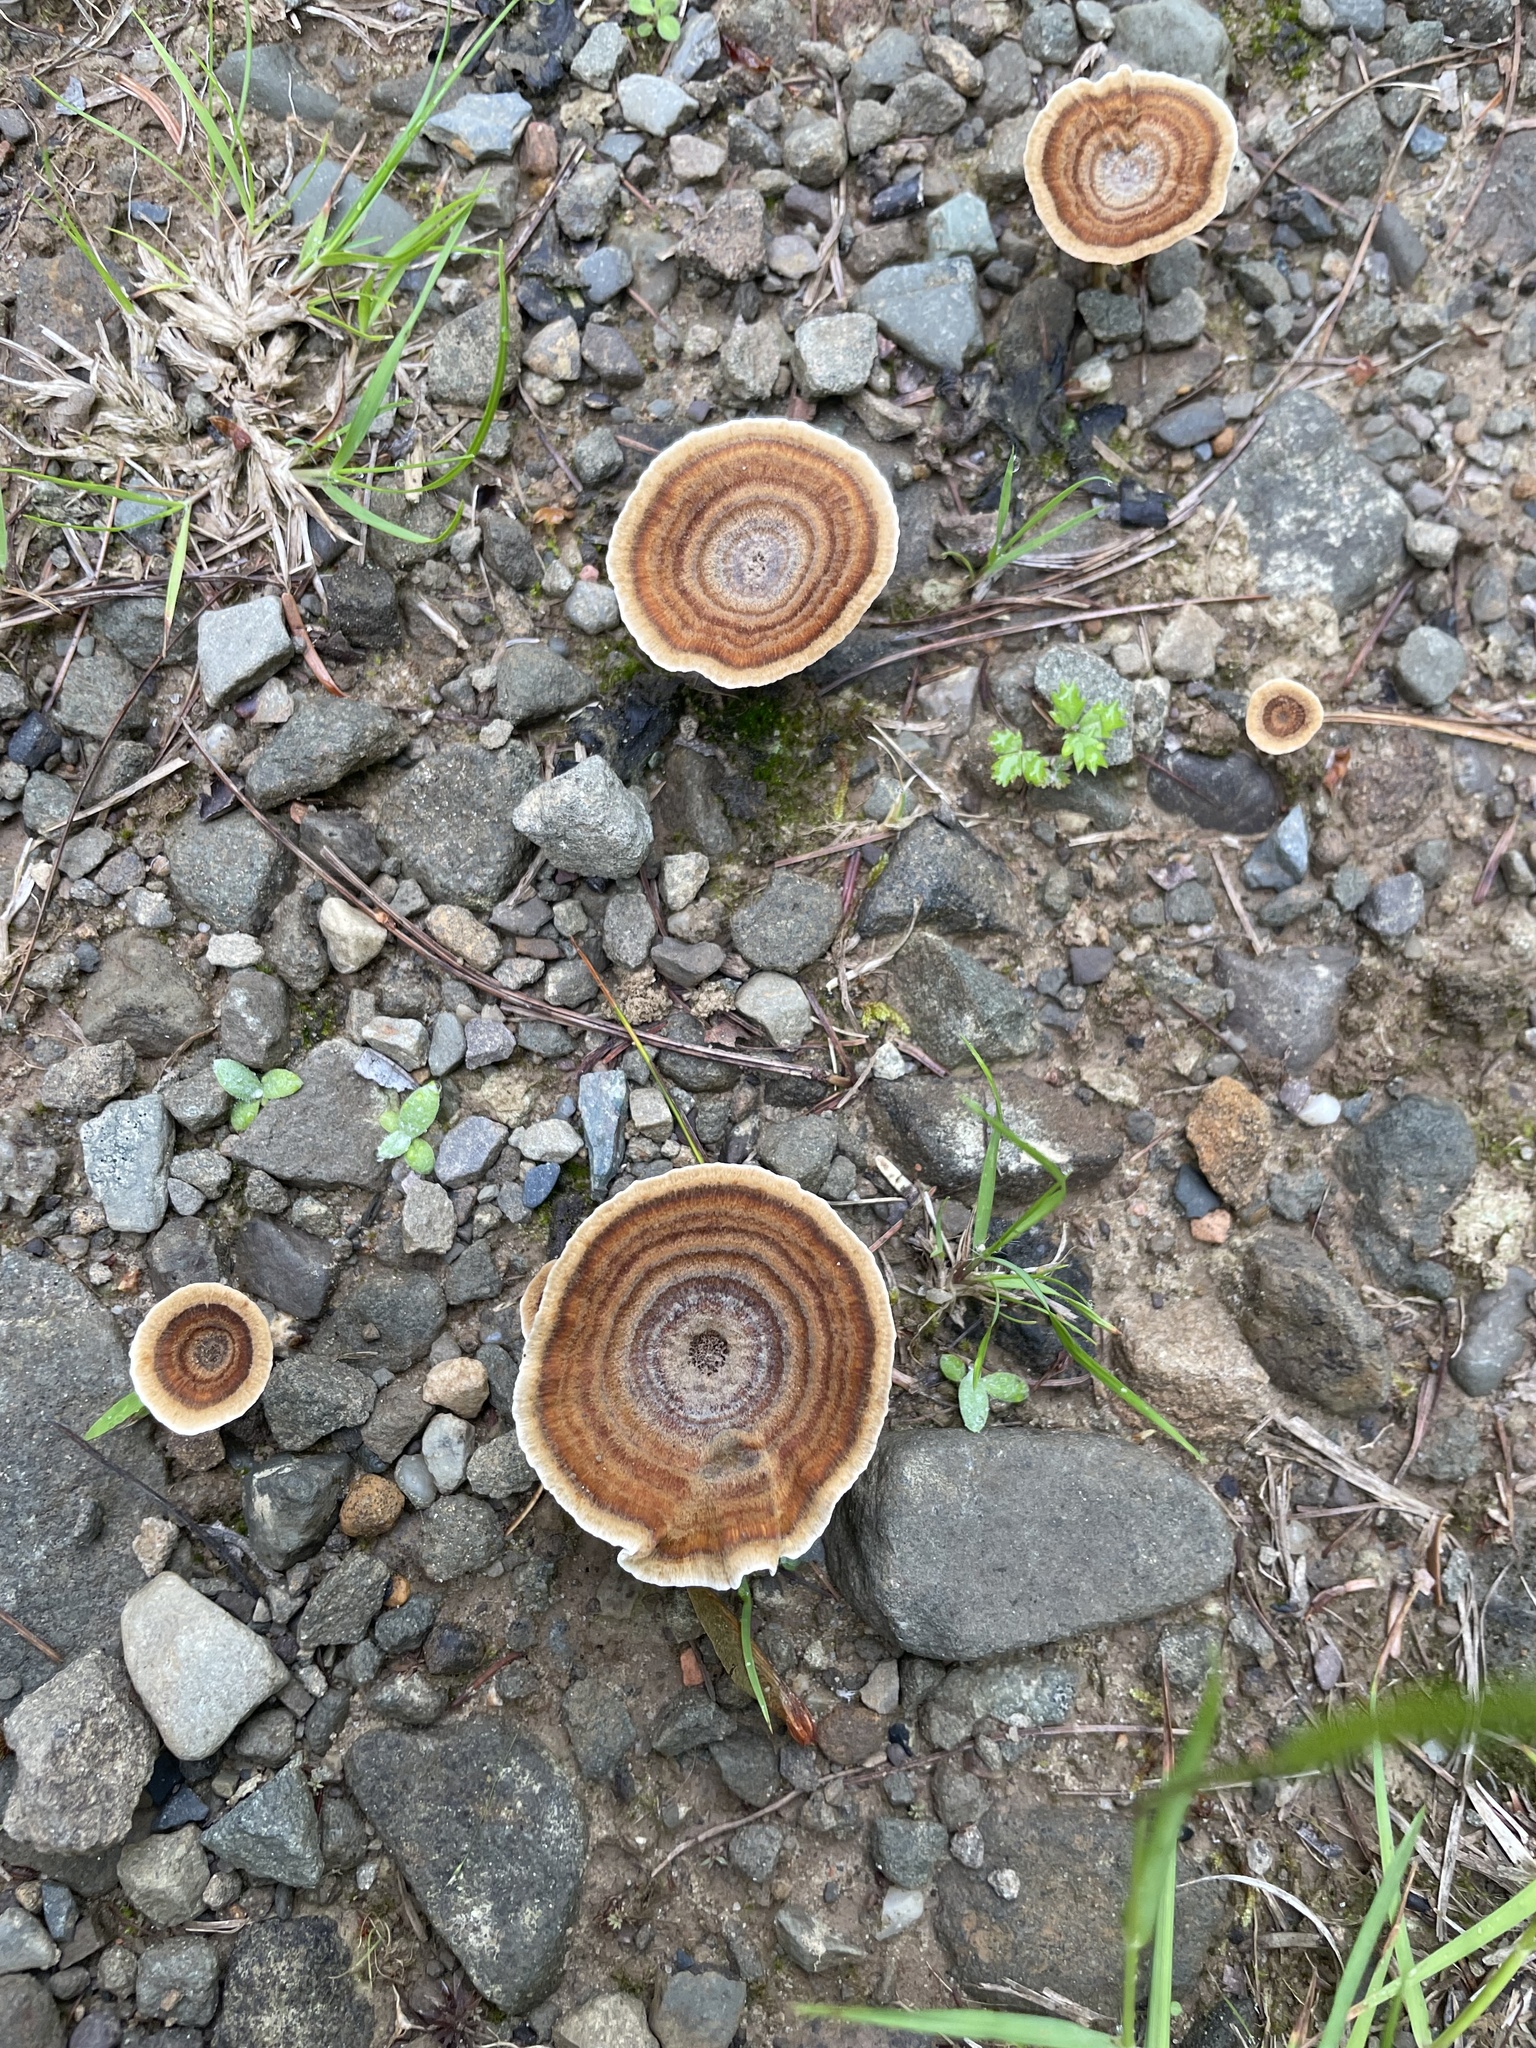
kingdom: Fungi
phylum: Basidiomycota
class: Agaricomycetes
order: Hymenochaetales
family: Hymenochaetaceae
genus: Coltricia
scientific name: Coltricia perennis
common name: Tiger's eye
